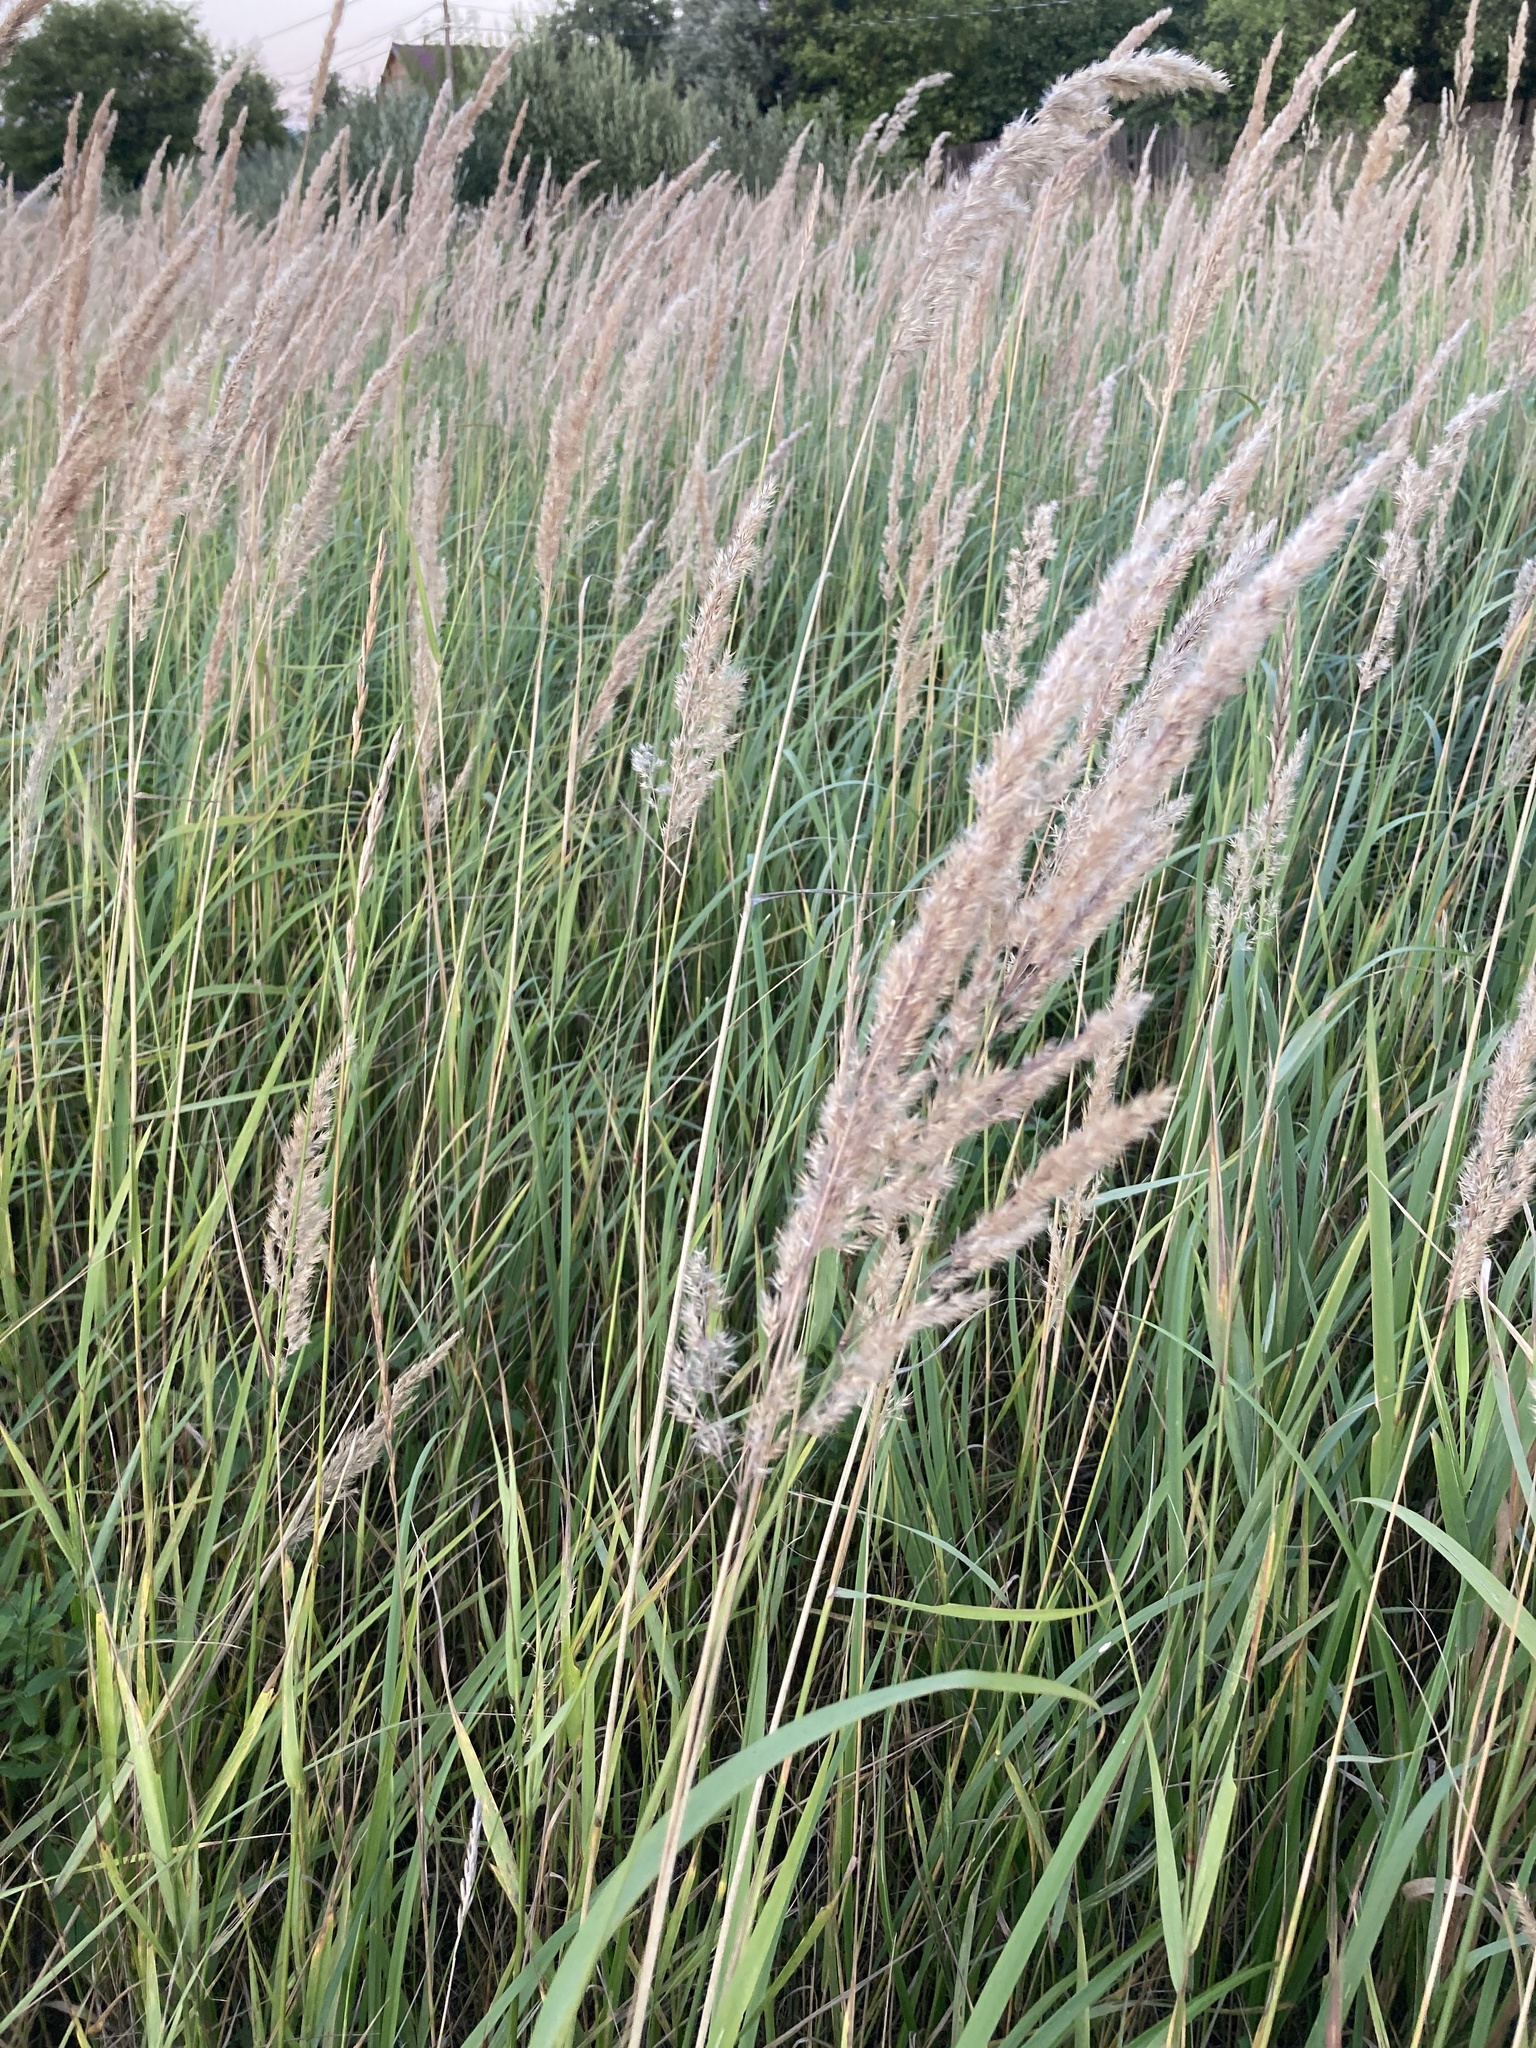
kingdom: Plantae
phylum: Tracheophyta
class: Liliopsida
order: Poales
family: Poaceae
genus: Calamagrostis
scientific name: Calamagrostis epigejos
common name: Wood small-reed
